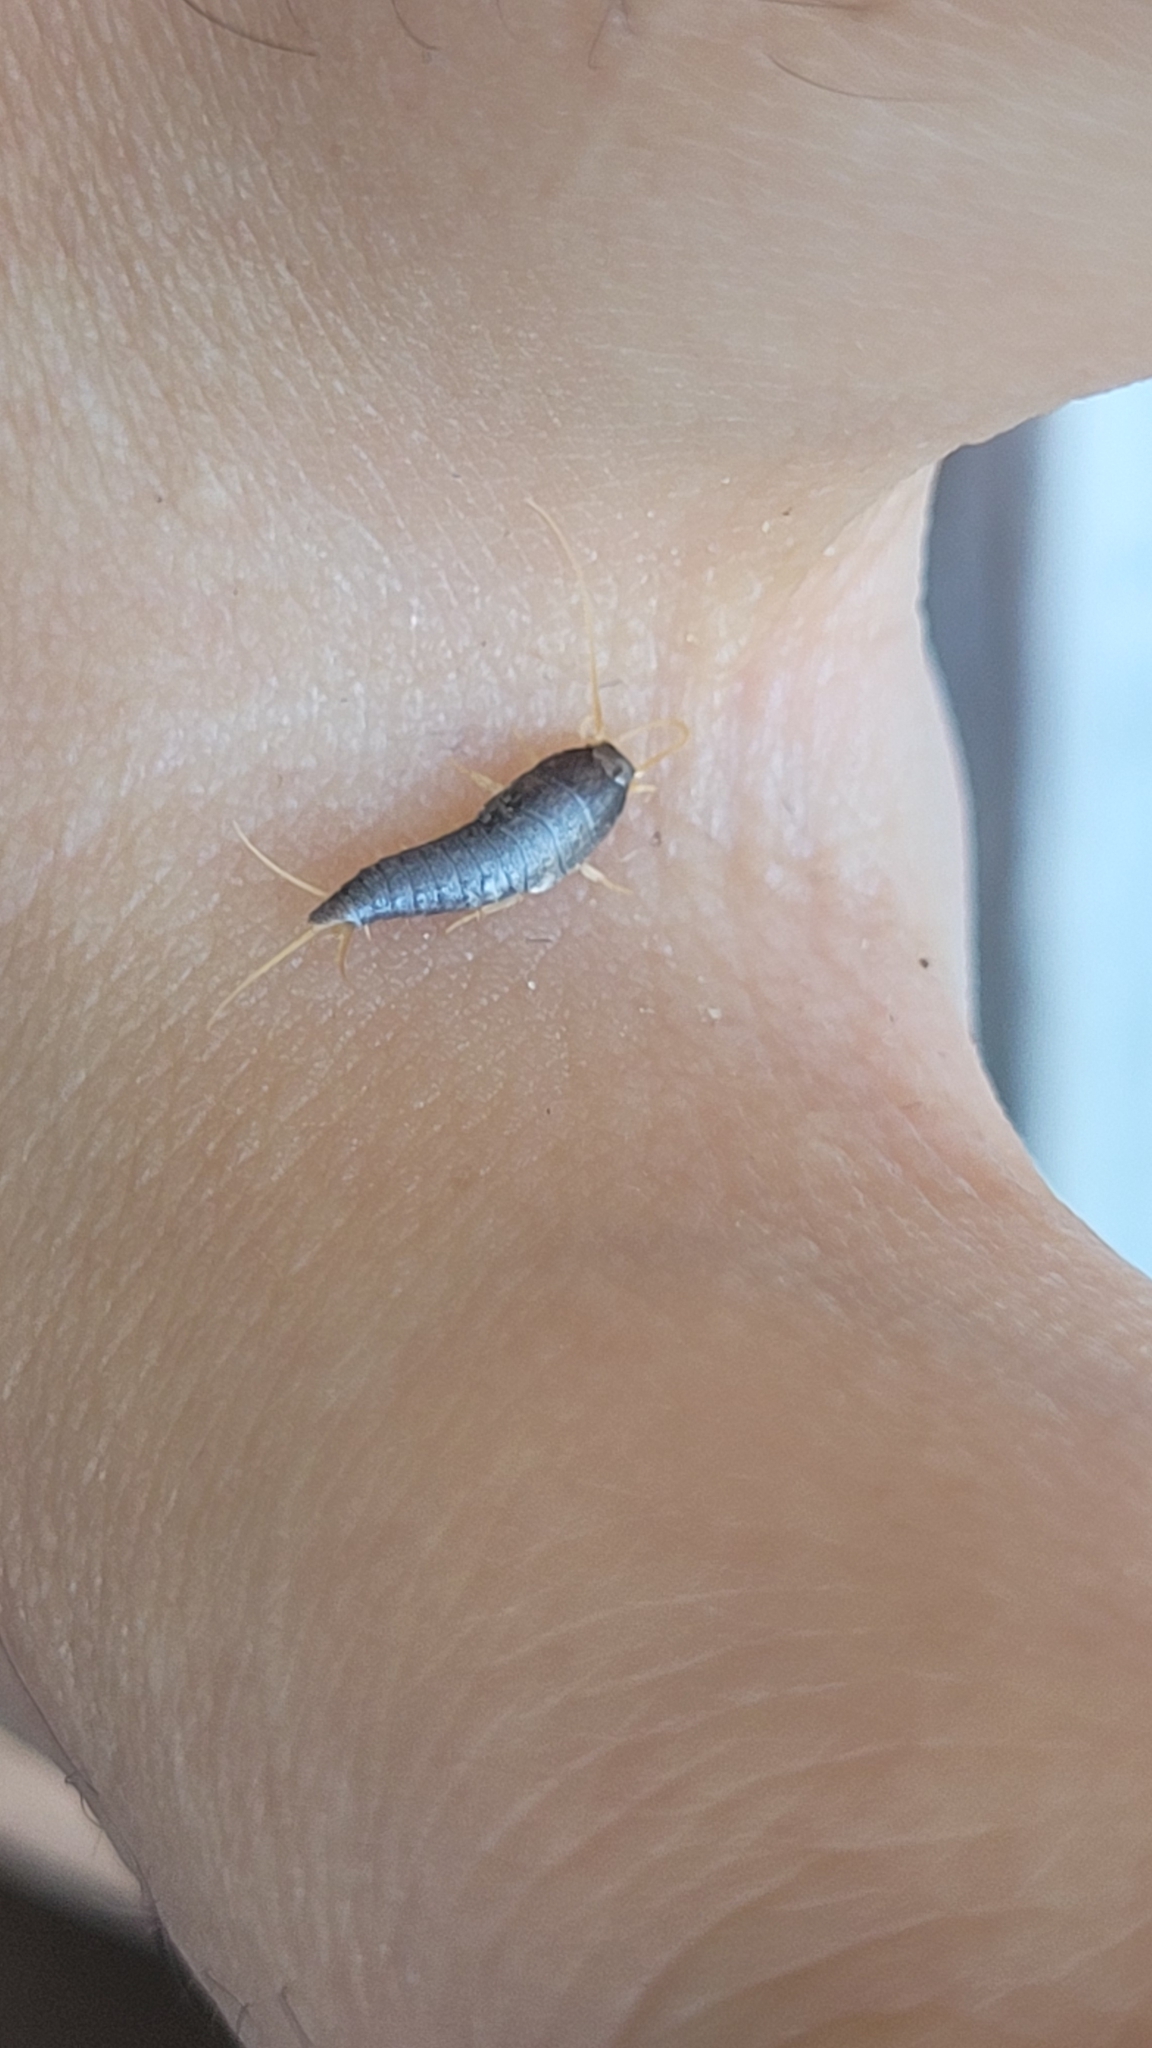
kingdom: Animalia
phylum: Arthropoda
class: Insecta
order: Zygentoma
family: Lepismatidae
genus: Lepisma
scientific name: Lepisma saccharinum
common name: Silverfish
